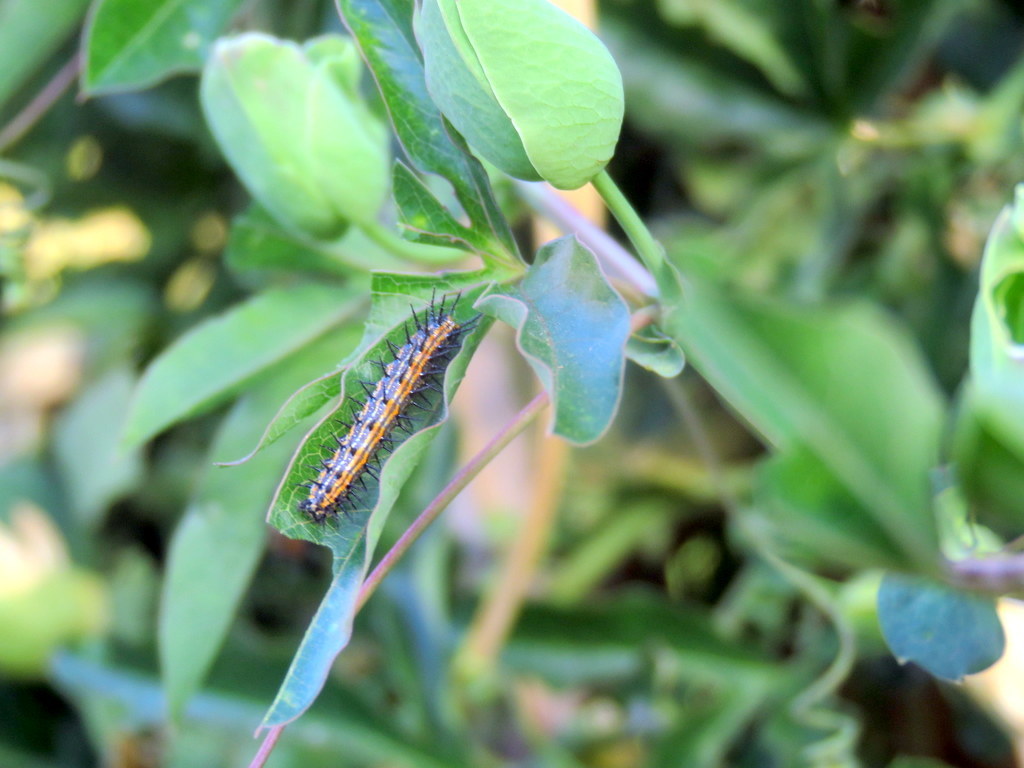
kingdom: Animalia
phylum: Arthropoda
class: Insecta
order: Lepidoptera
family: Nymphalidae
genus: Dione
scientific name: Dione vanillae
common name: Gulf fritillary
